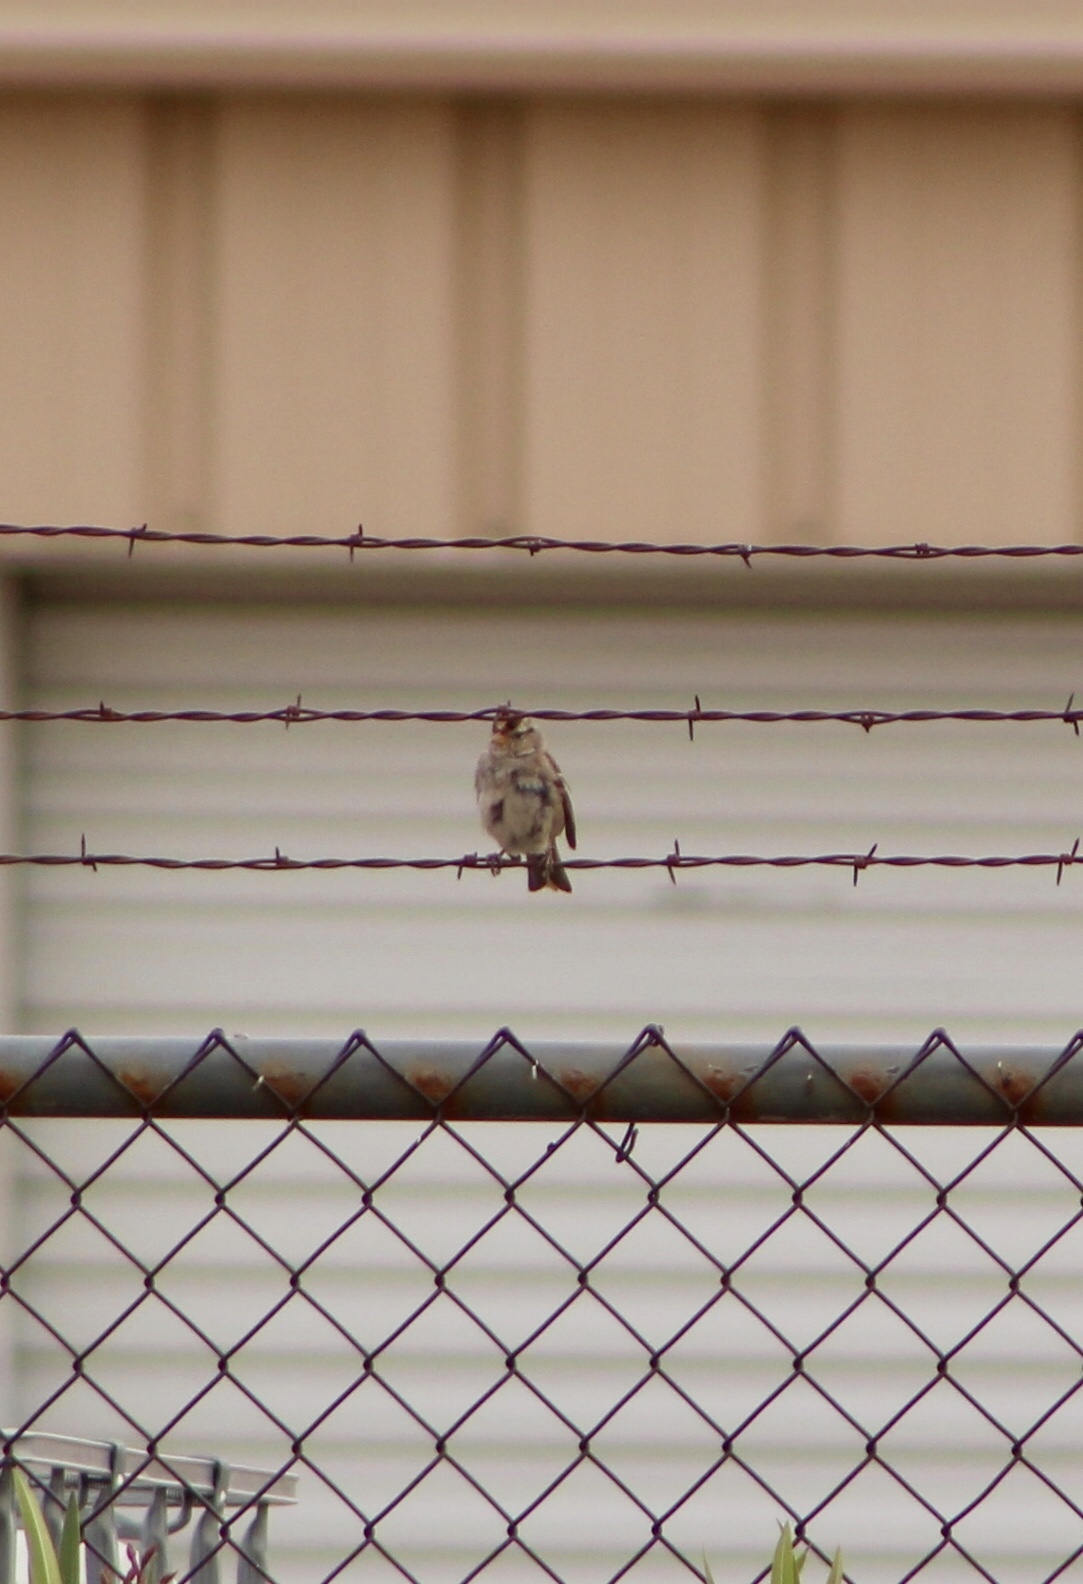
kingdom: Animalia
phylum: Chordata
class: Aves
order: Passeriformes
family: Passerellidae
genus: Zonotrichia
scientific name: Zonotrichia leucophrys
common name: White-crowned sparrow
